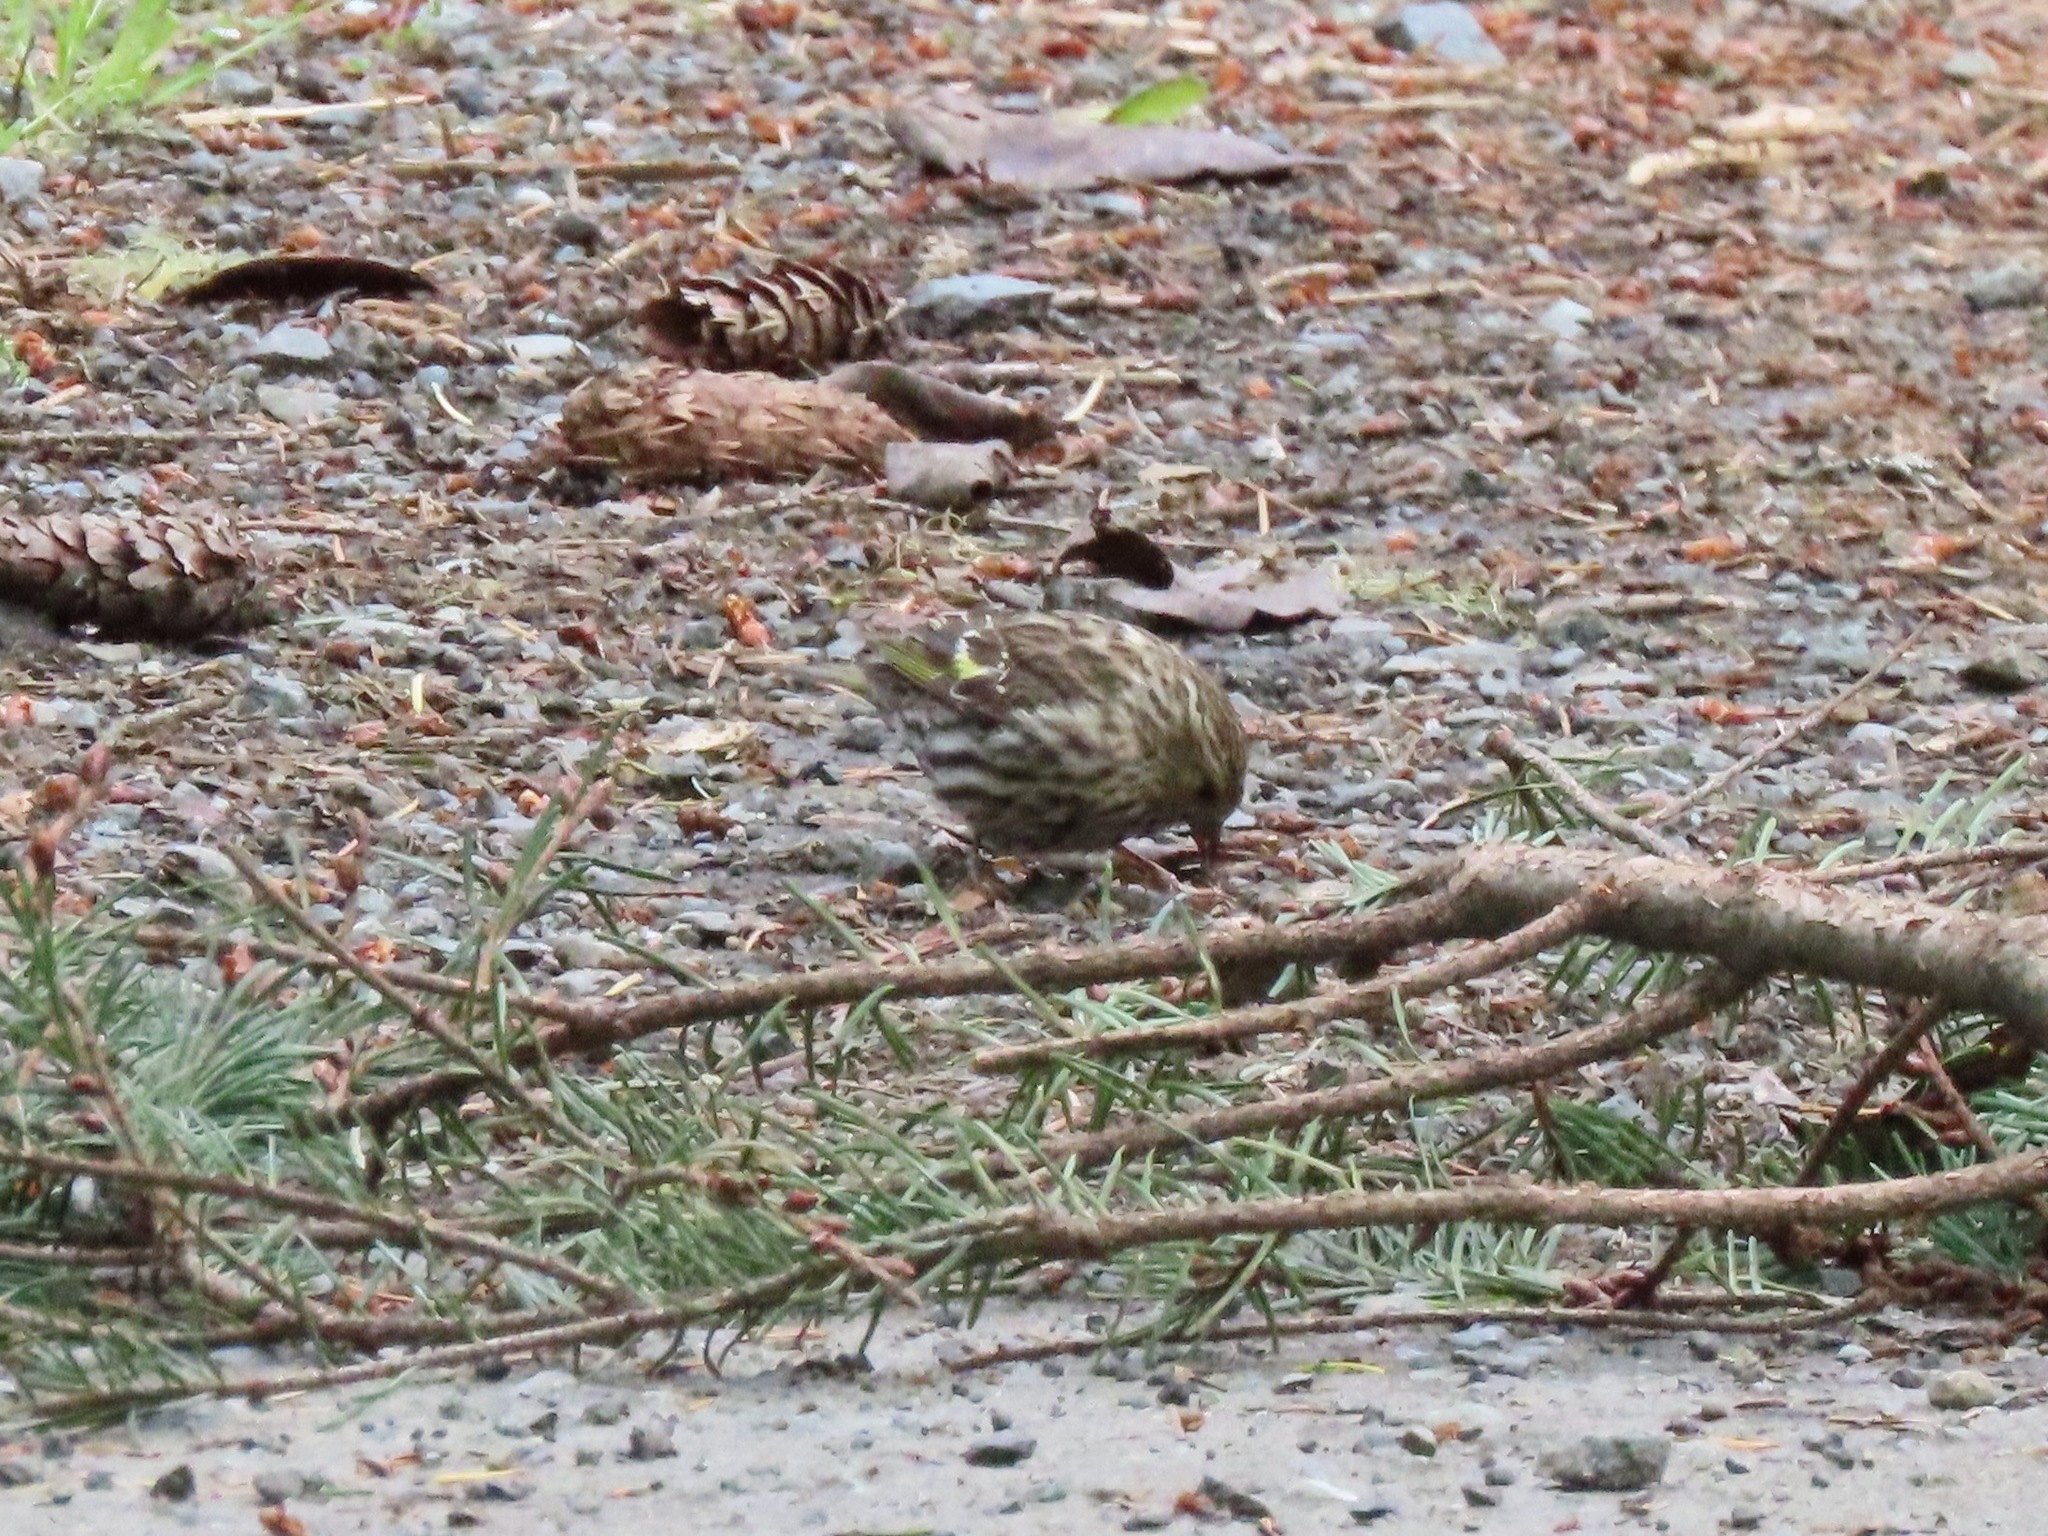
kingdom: Animalia
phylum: Chordata
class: Aves
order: Passeriformes
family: Fringillidae
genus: Spinus
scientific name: Spinus pinus
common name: Pine siskin
